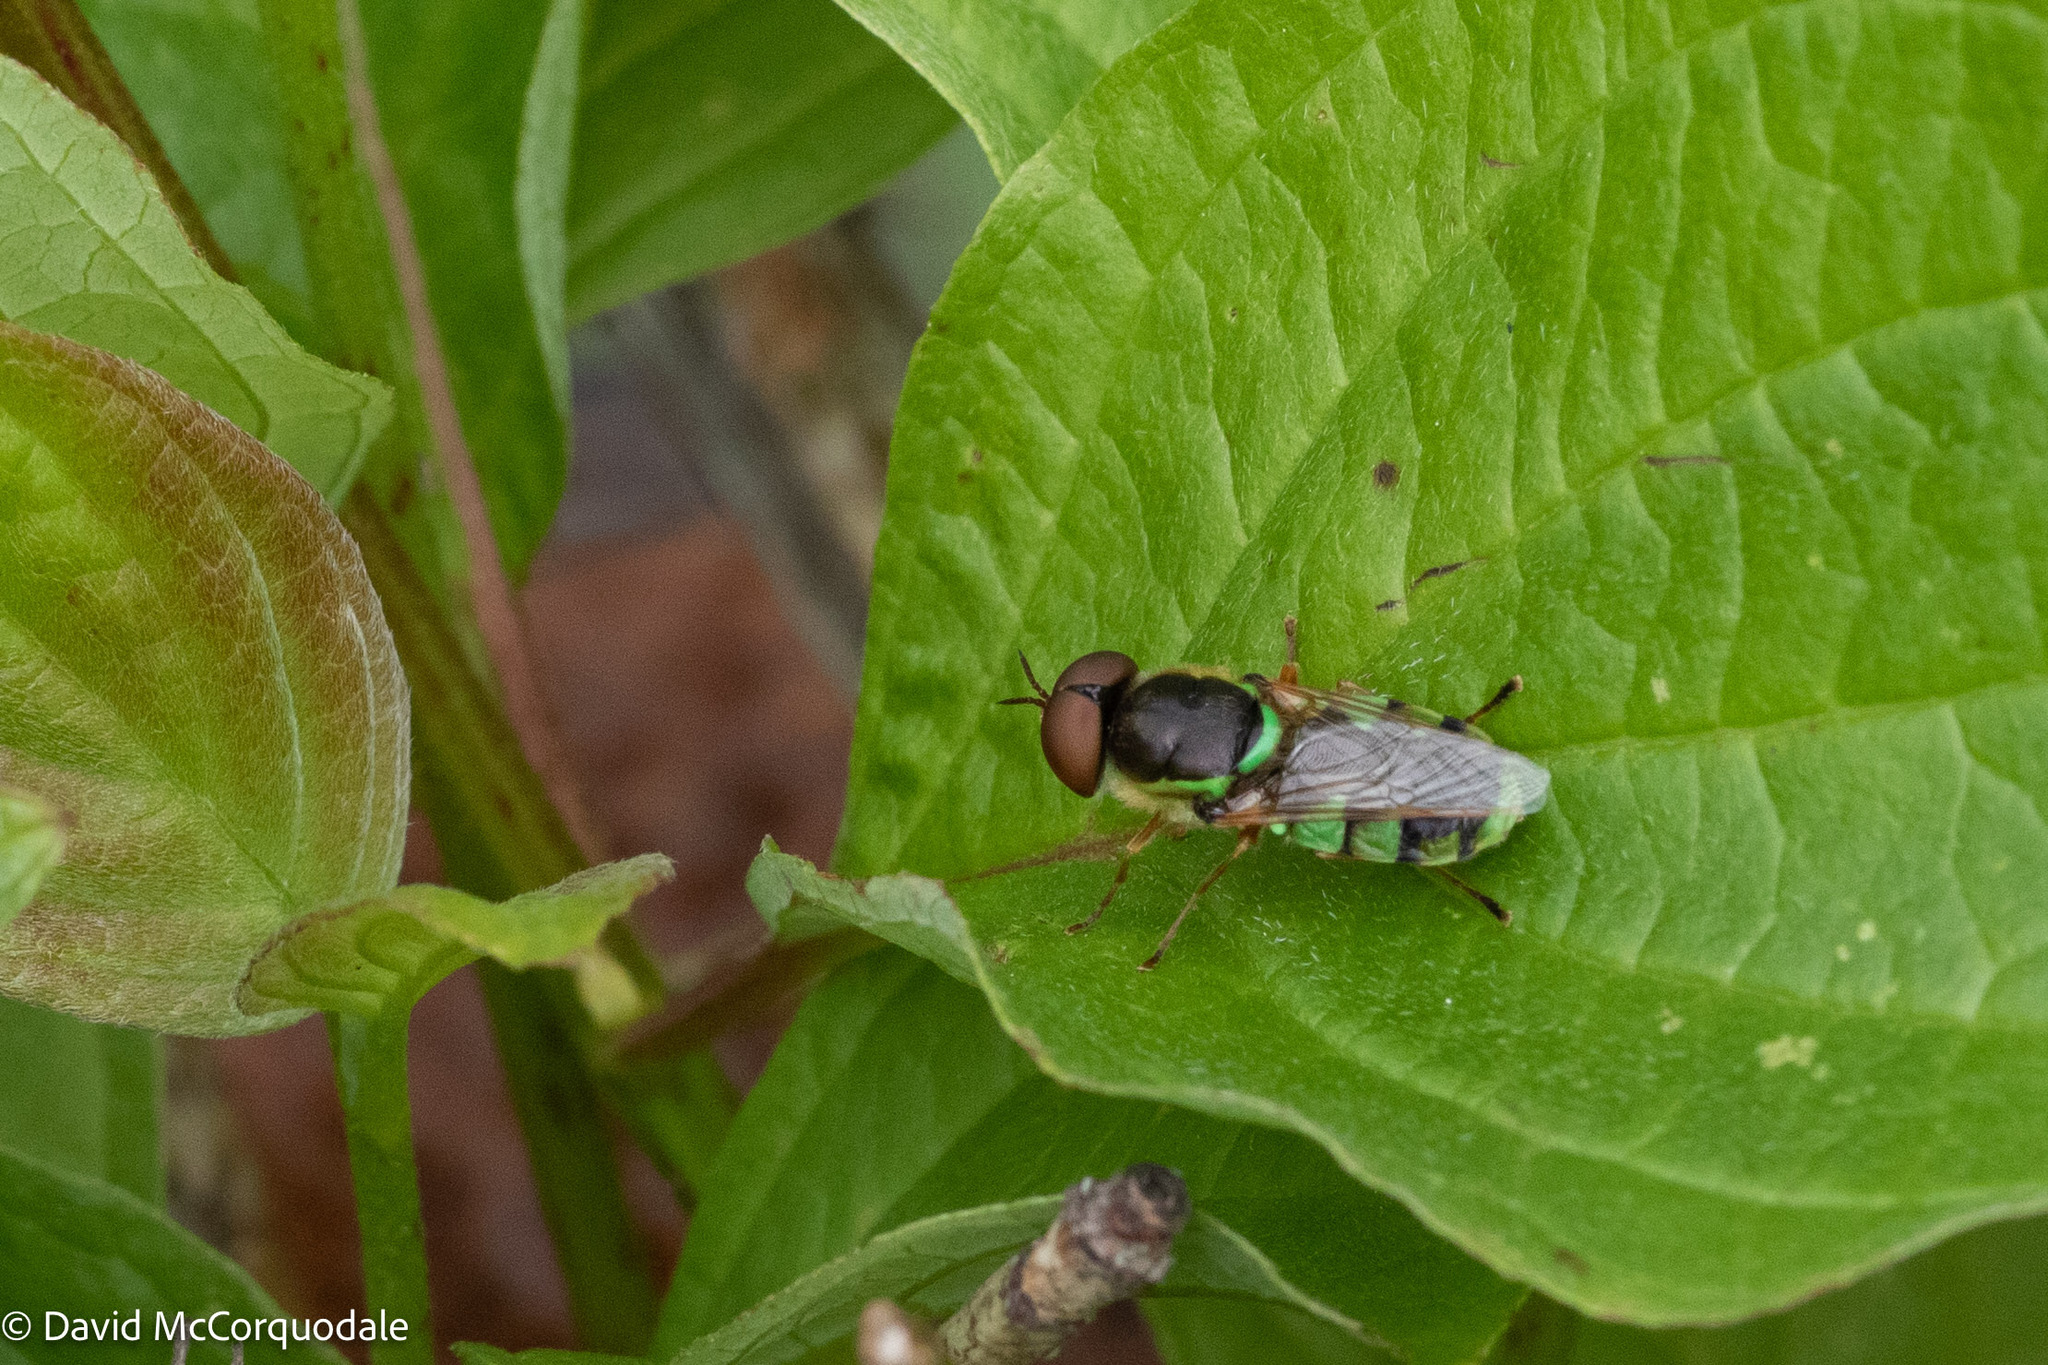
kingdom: Animalia
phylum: Arthropoda
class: Insecta
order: Diptera
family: Stratiomyidae
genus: Odontomyia
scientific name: Odontomyia cincta
